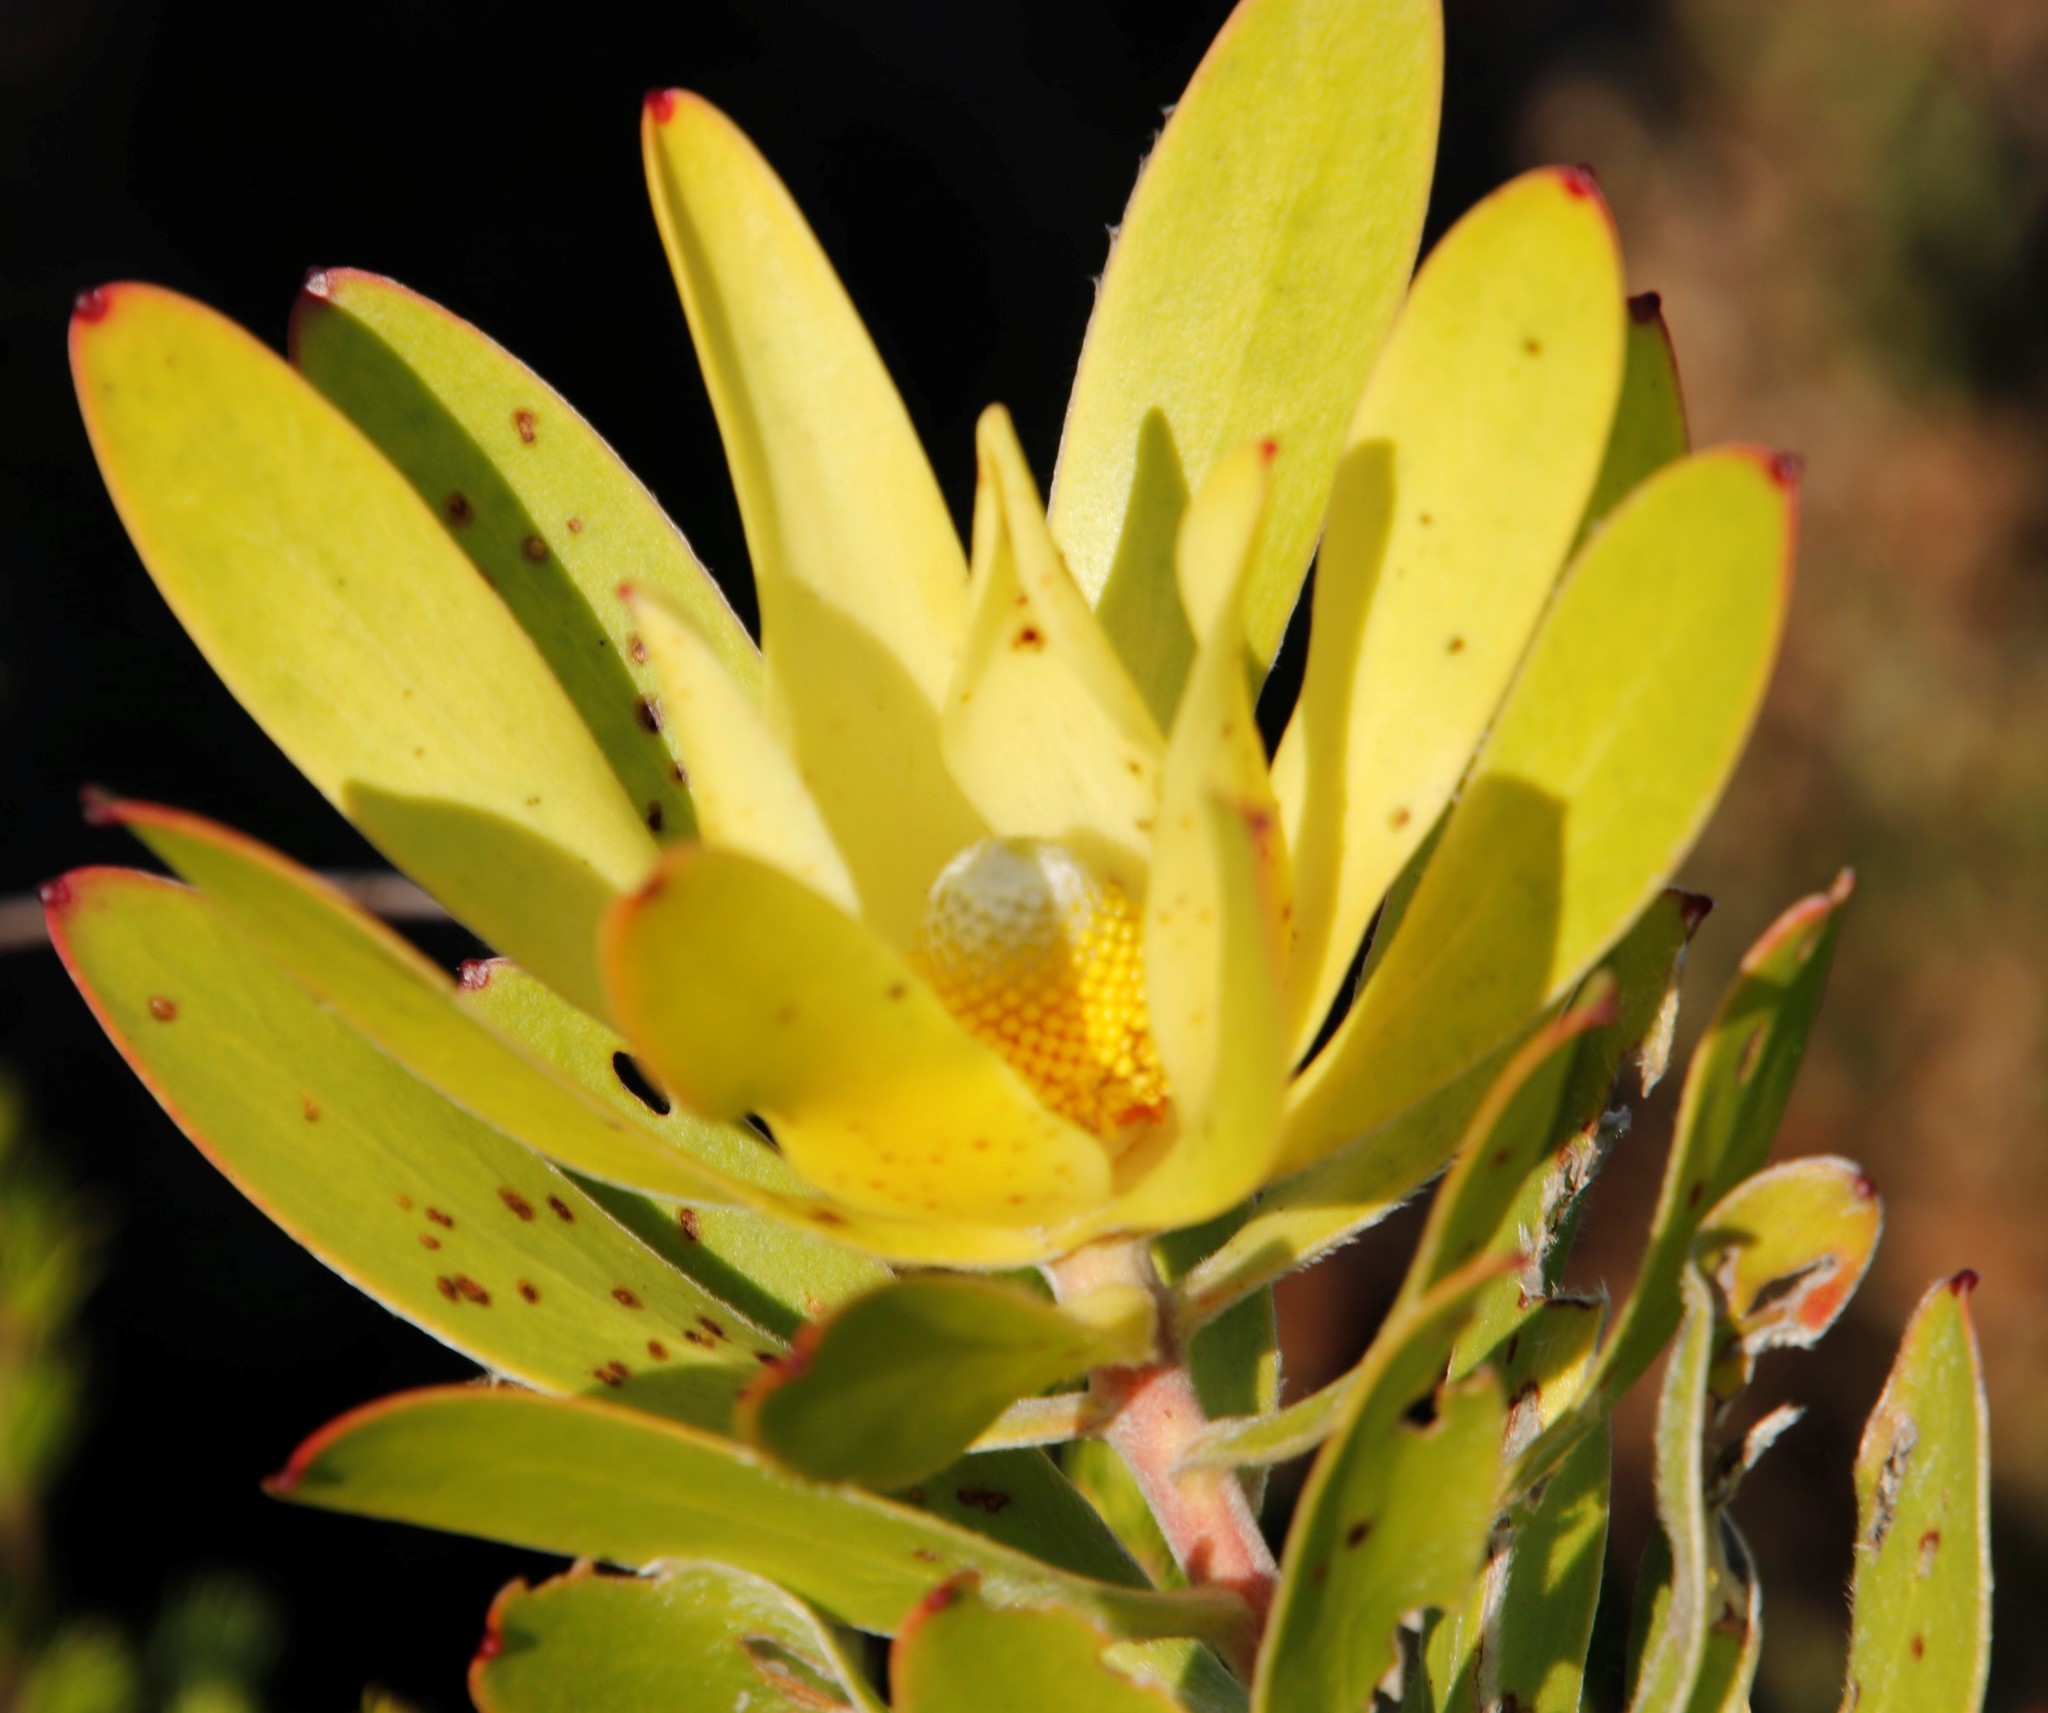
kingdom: Plantae
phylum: Tracheophyta
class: Magnoliopsida
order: Proteales
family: Proteaceae
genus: Leucadendron
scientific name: Leucadendron laureolum
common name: Golden sunshinebush
